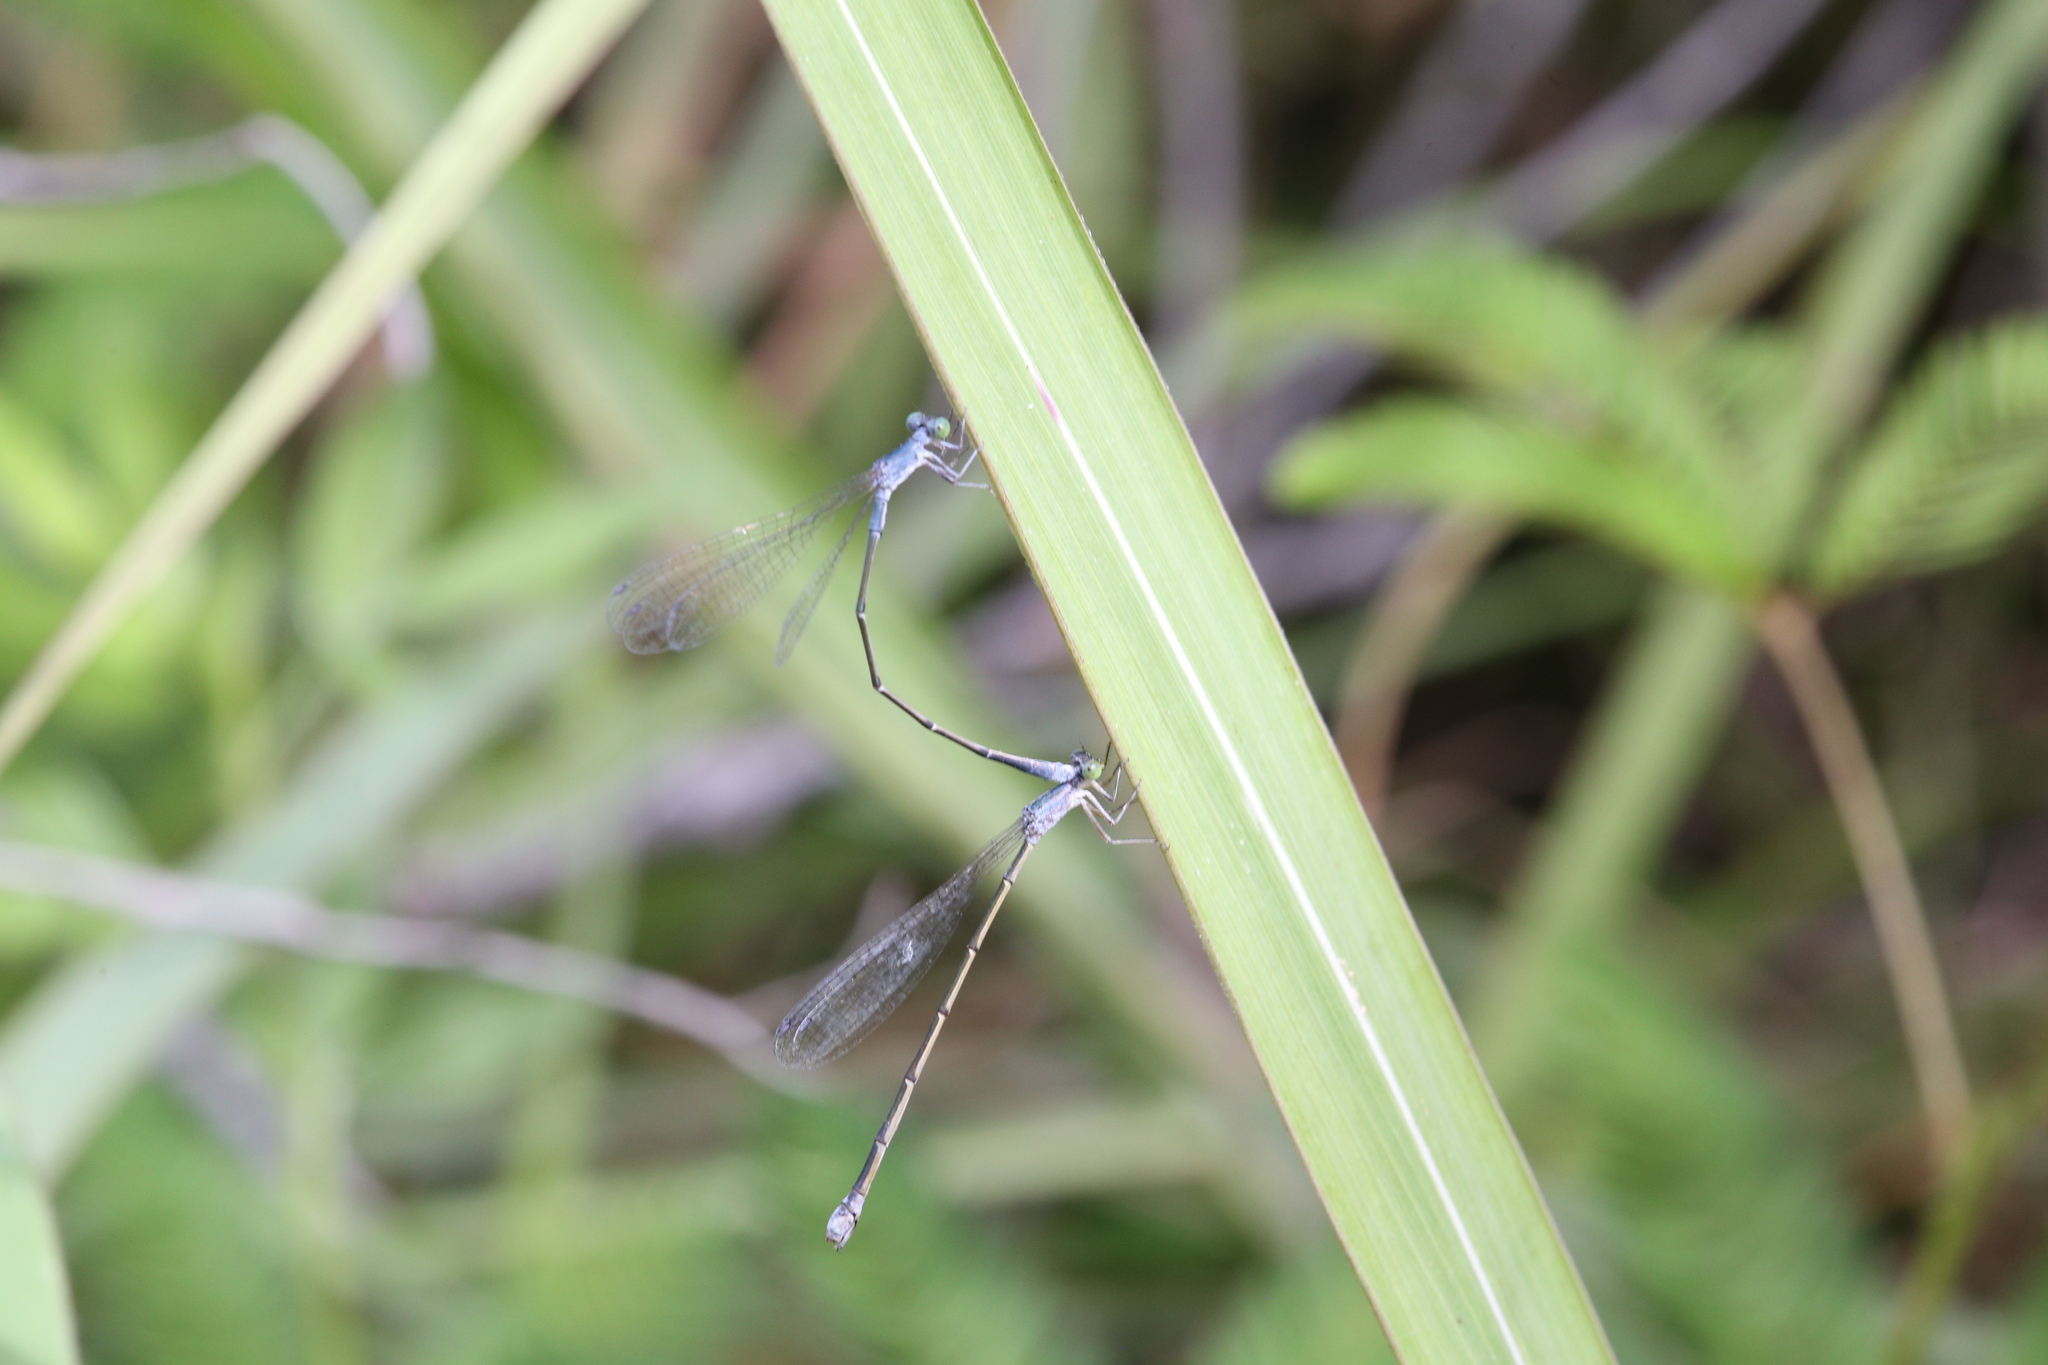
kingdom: Animalia
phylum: Arthropoda
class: Insecta
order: Odonata
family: Isostictidae
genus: Rhadinosticta
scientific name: Rhadinosticta banksi
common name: Northern wiretail
